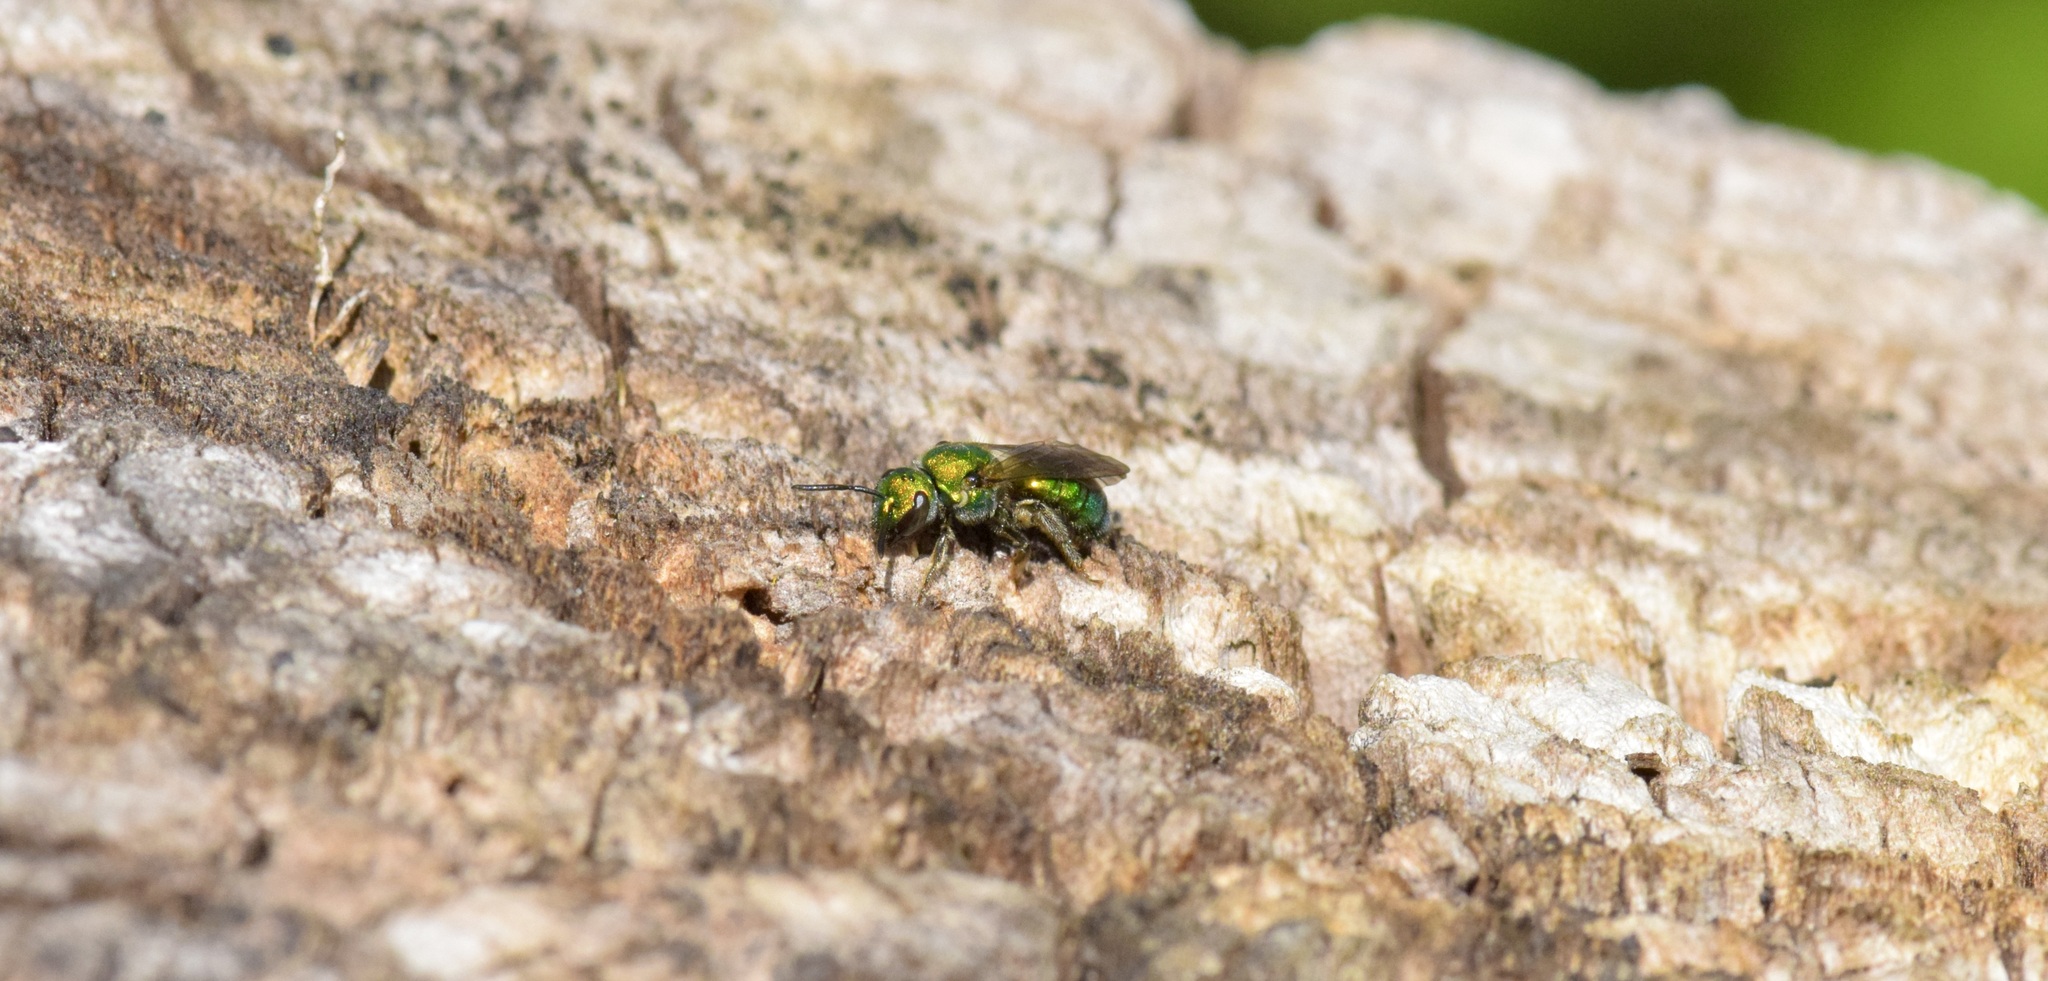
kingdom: Animalia
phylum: Arthropoda
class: Insecta
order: Hymenoptera
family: Halictidae
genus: Augochlora
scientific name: Augochlora pura
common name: Pure green sweat bee
